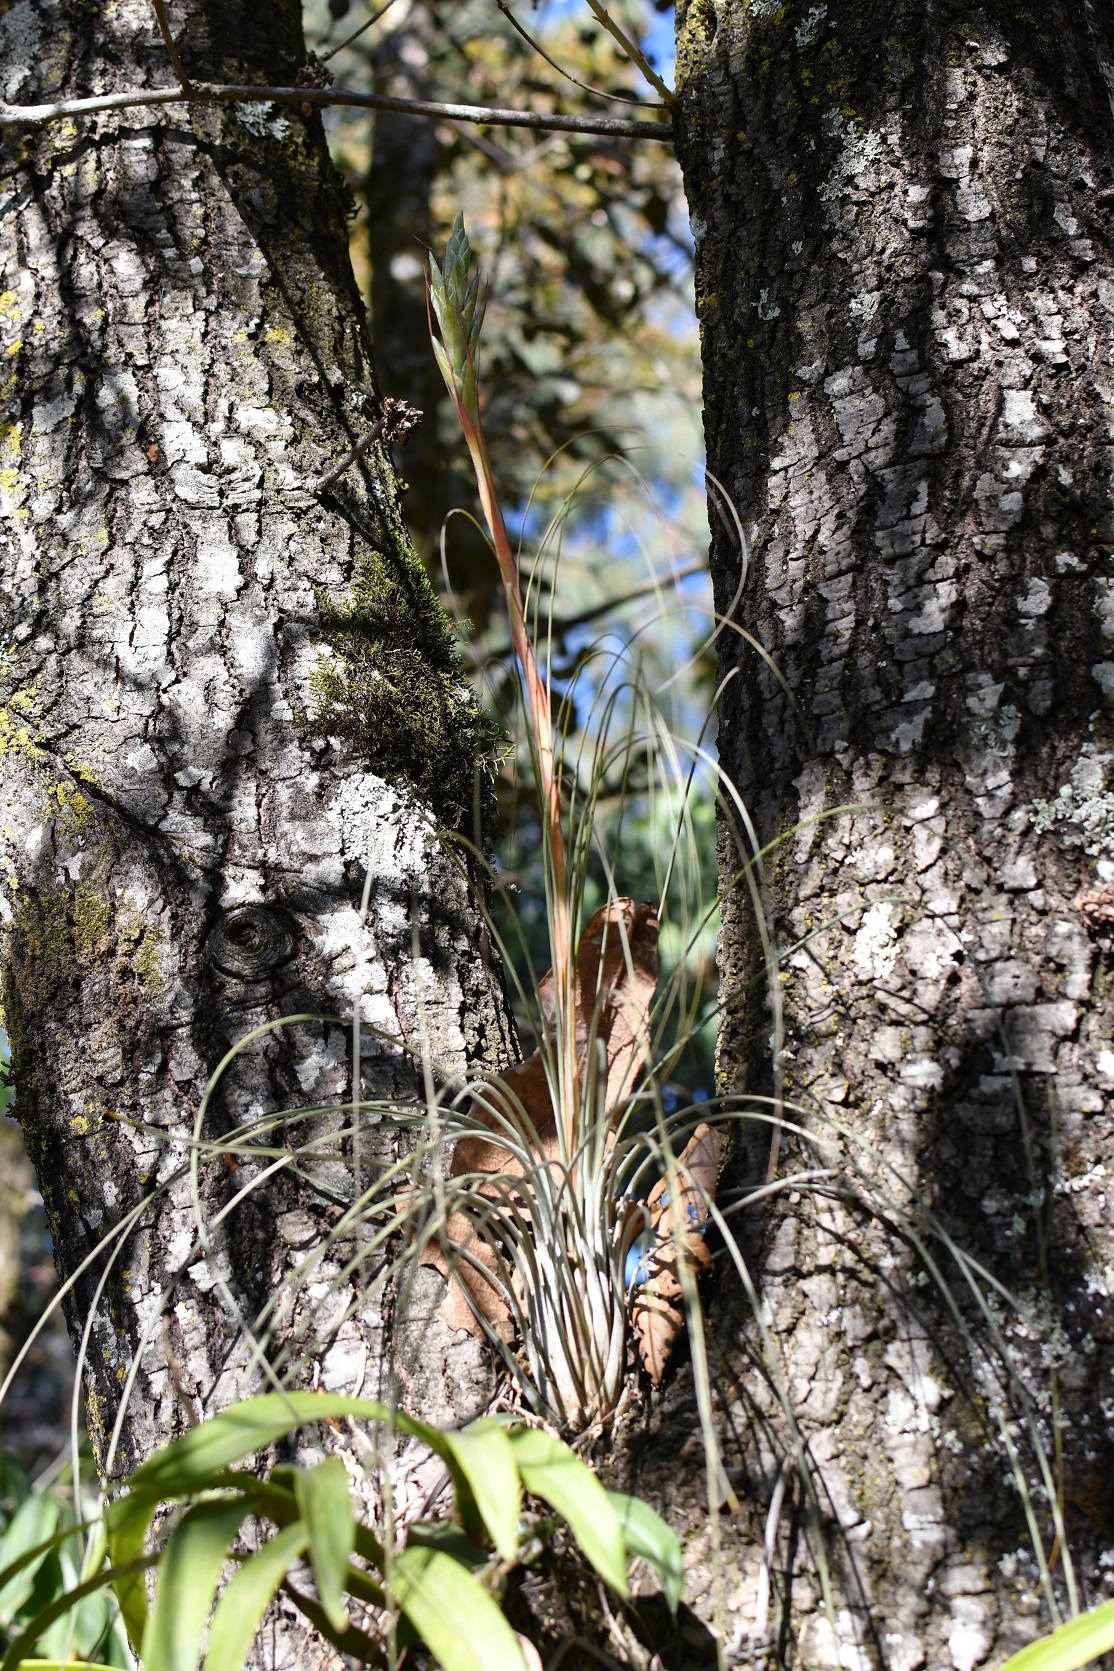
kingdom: Plantae
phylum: Tracheophyta
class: Liliopsida
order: Poales
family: Bromeliaceae
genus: Tillandsia
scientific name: Tillandsia juncea
